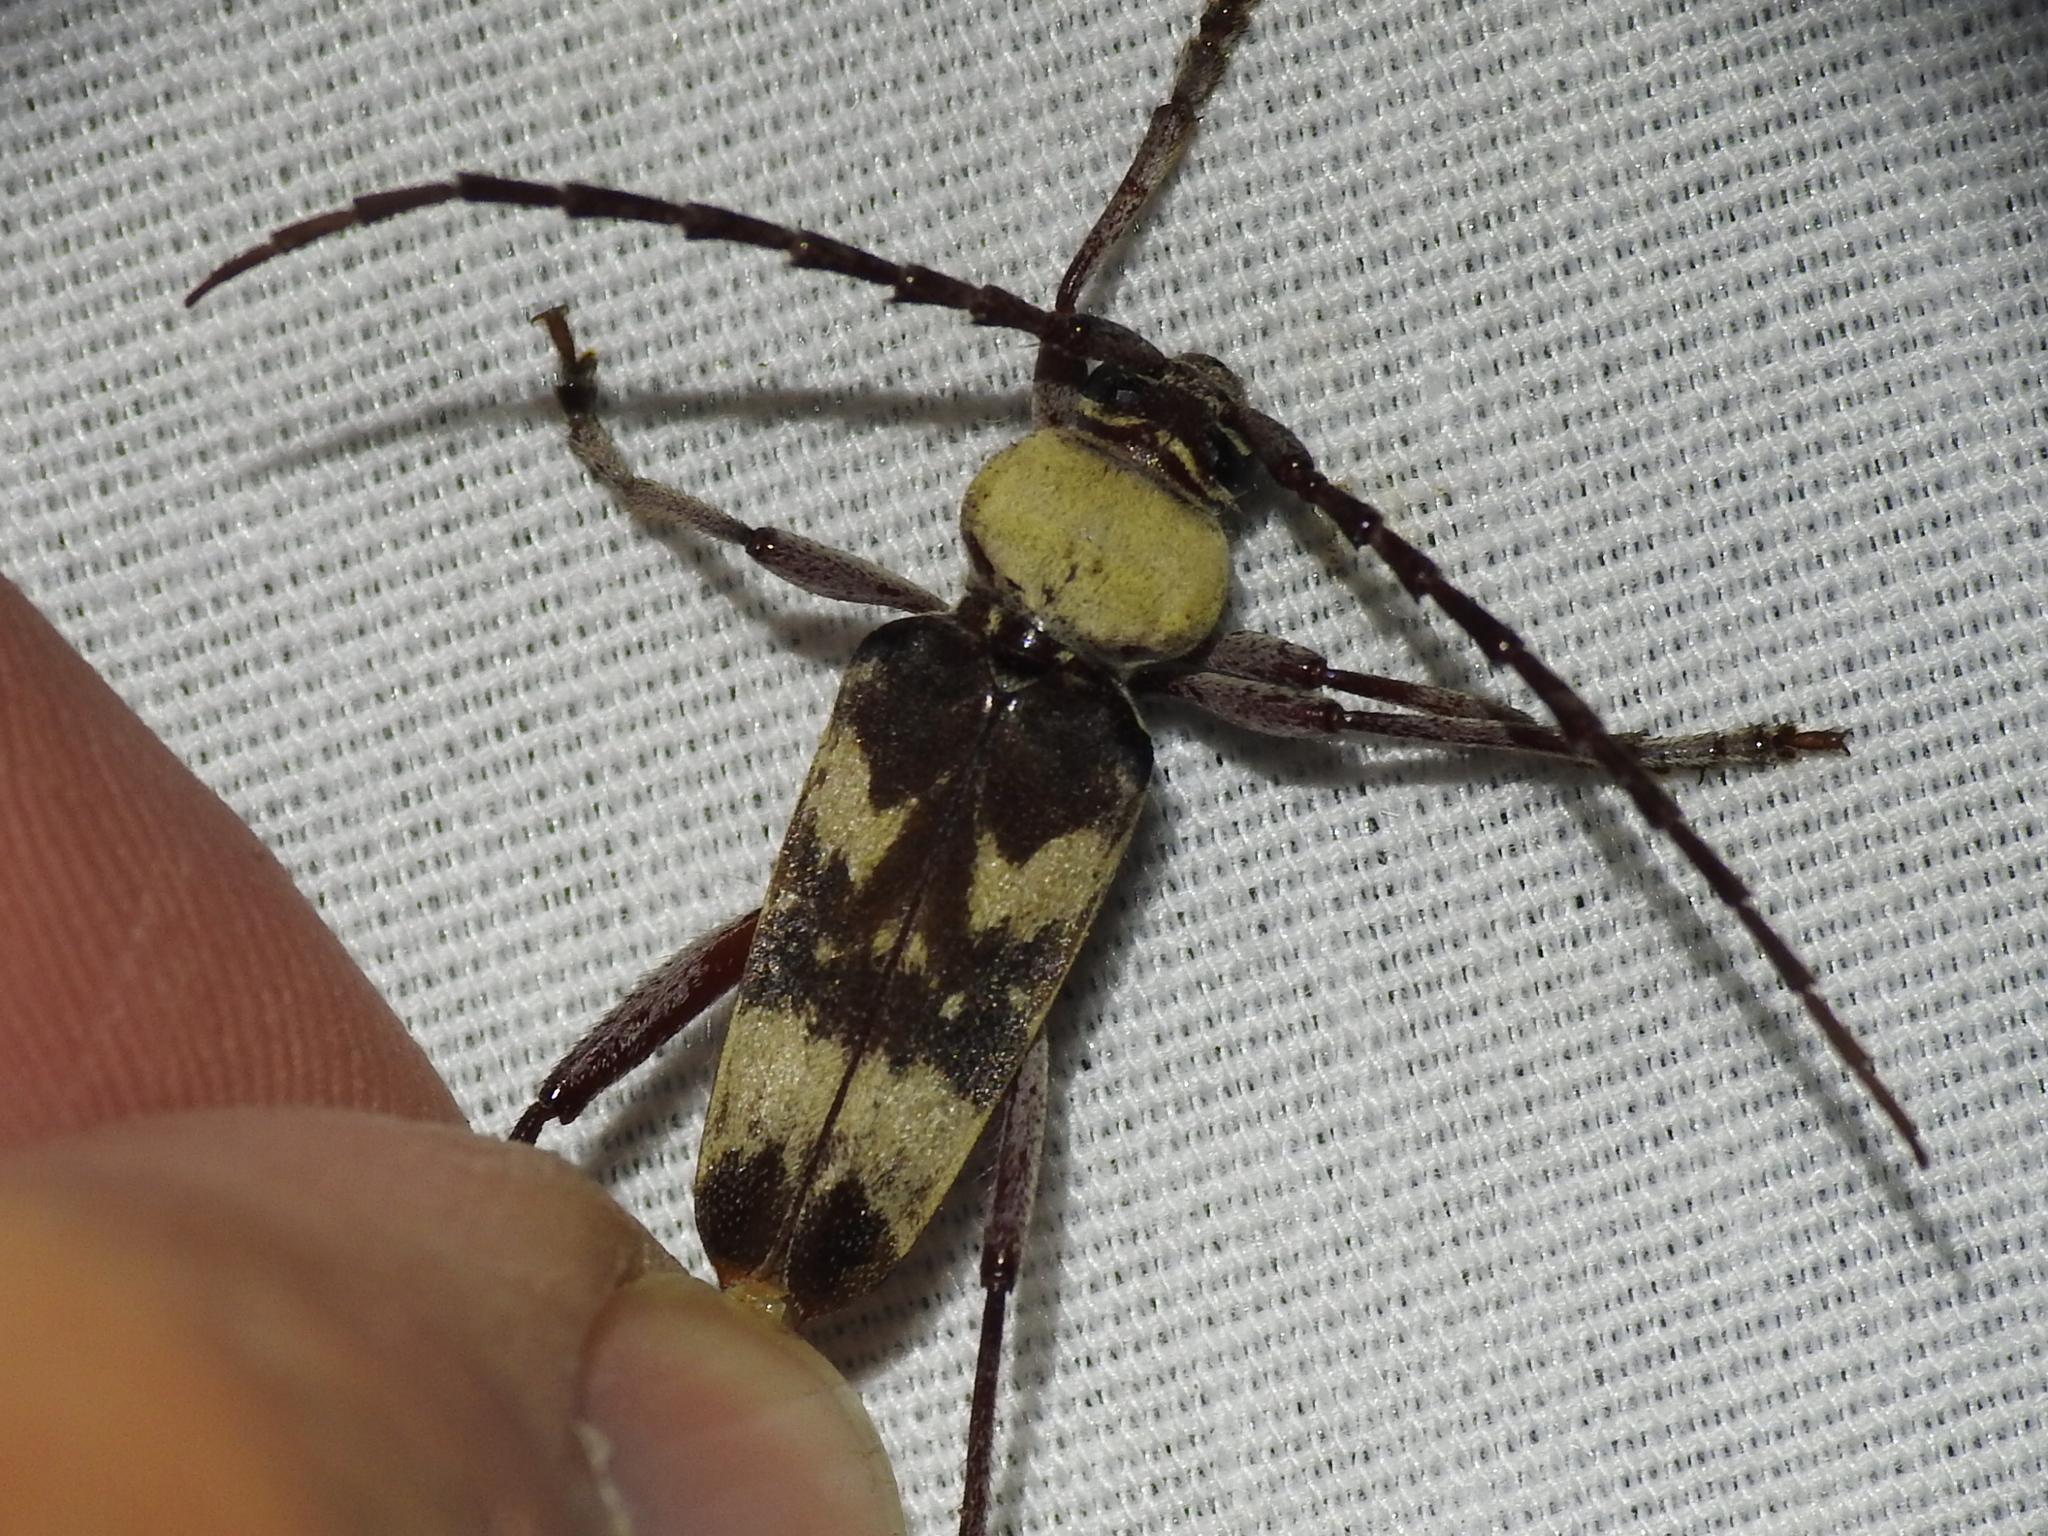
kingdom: Animalia
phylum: Arthropoda
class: Insecta
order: Coleoptera
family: Cerambycidae
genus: Megacyllene
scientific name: Megacyllene antennata
